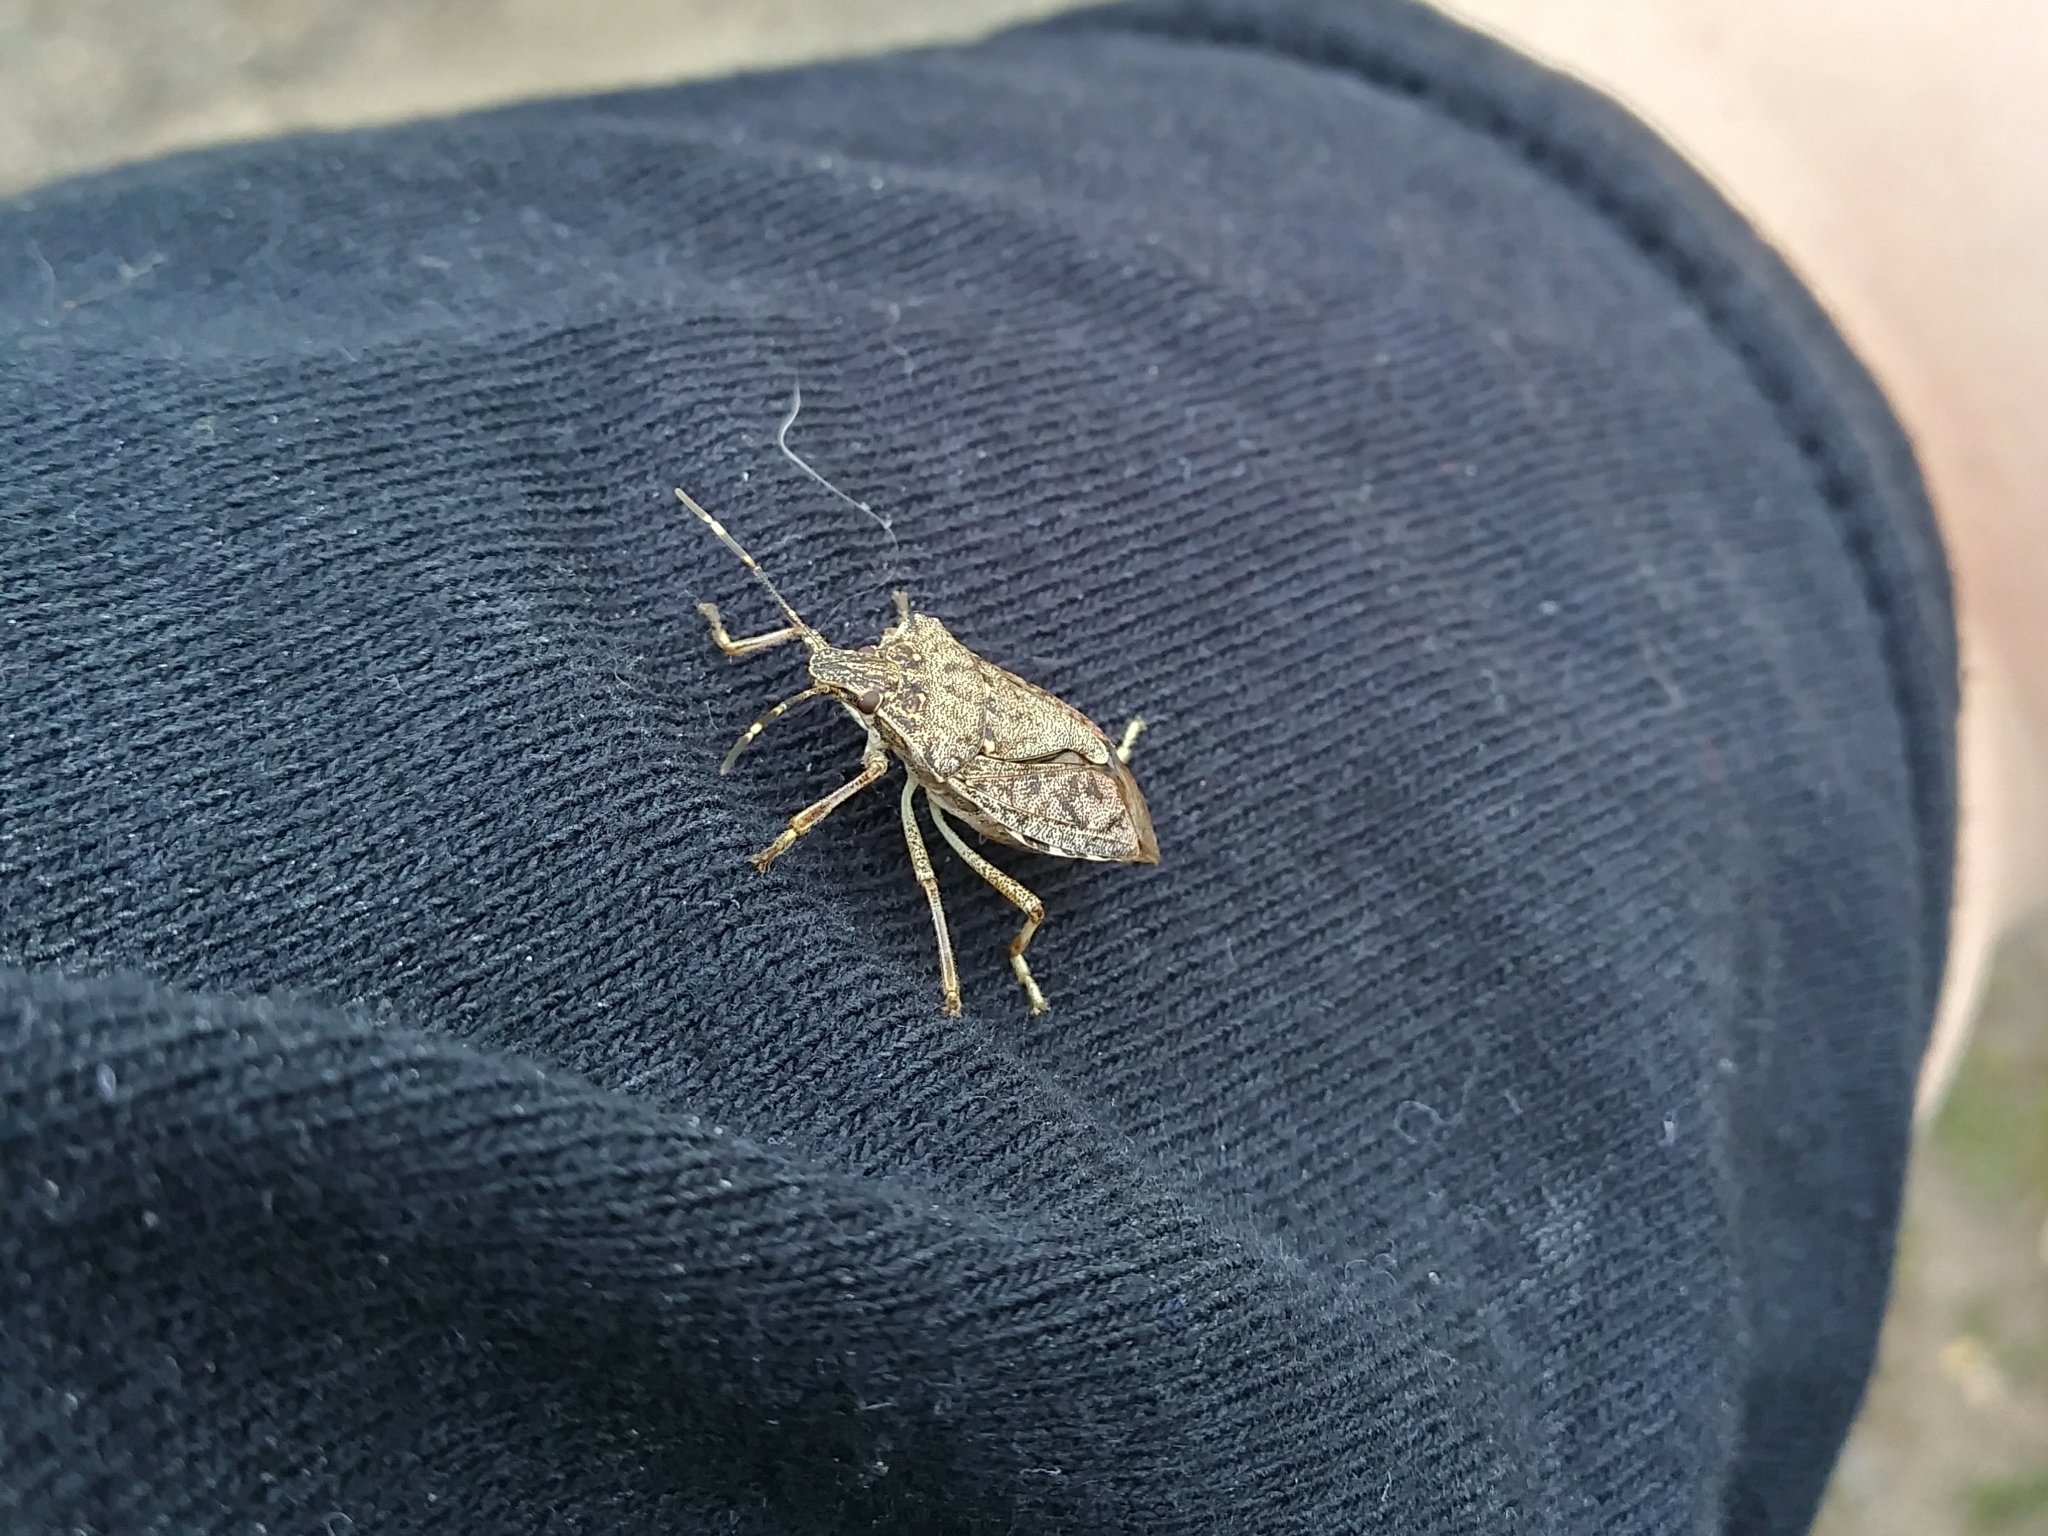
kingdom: Animalia
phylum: Arthropoda
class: Insecta
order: Hemiptera
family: Pentatomidae
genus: Halyomorpha
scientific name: Halyomorpha halys
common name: Brown marmorated stink bug
